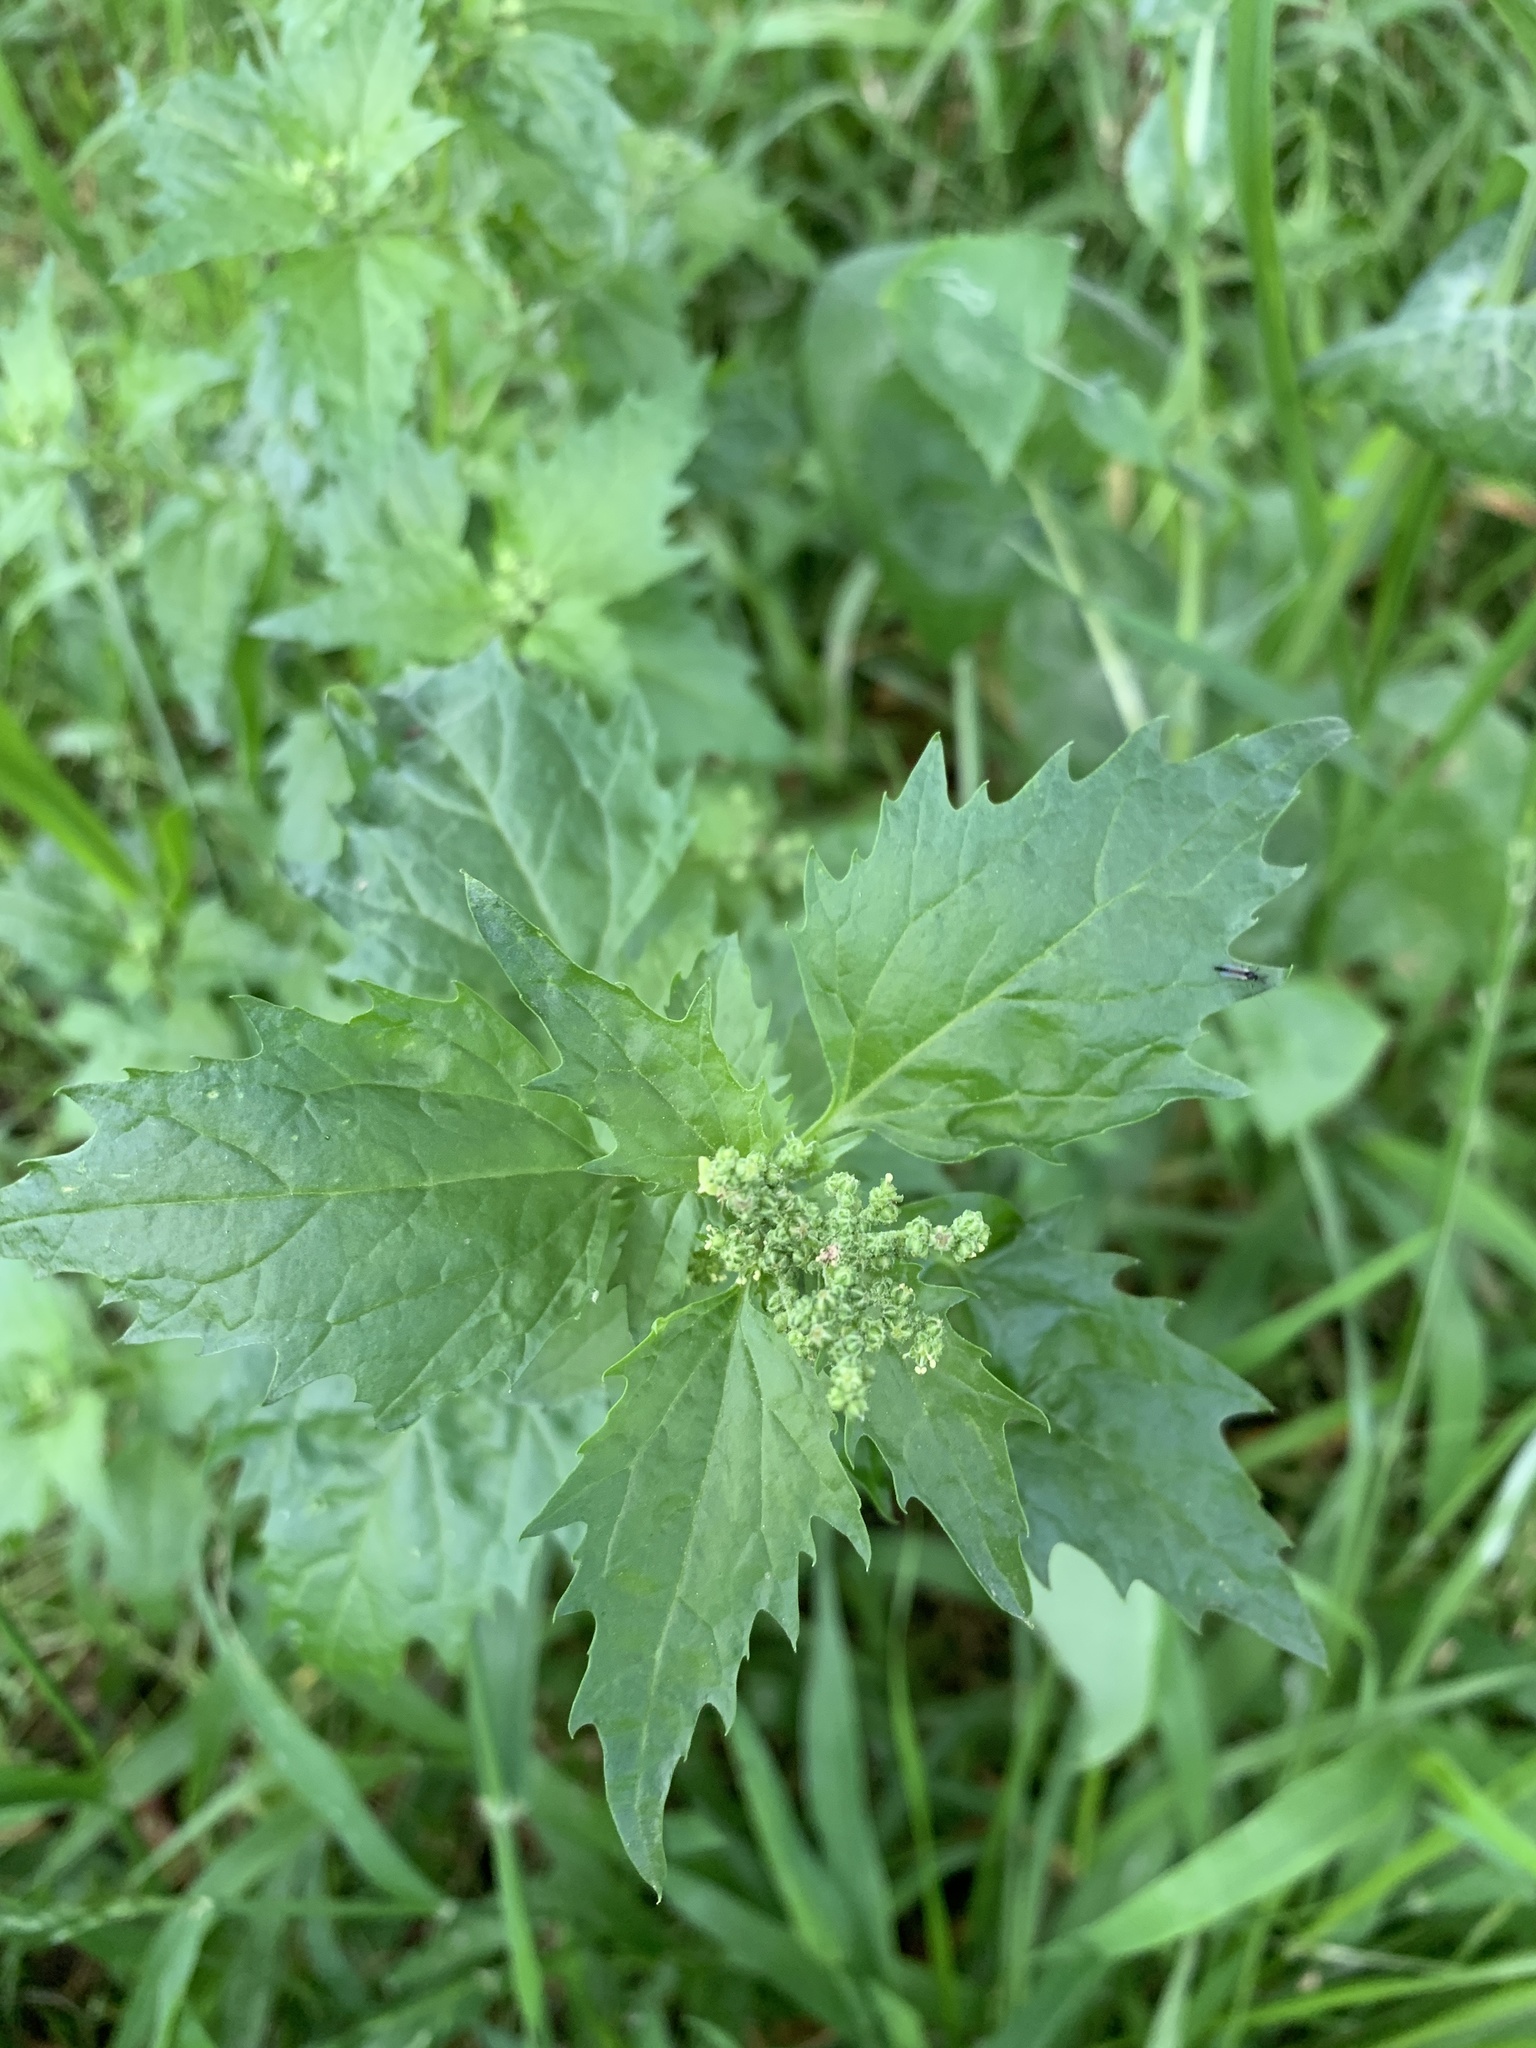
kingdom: Plantae
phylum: Tracheophyta
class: Magnoliopsida
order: Caryophyllales
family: Amaranthaceae
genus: Chenopodiastrum
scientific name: Chenopodiastrum murale
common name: Sowbane
